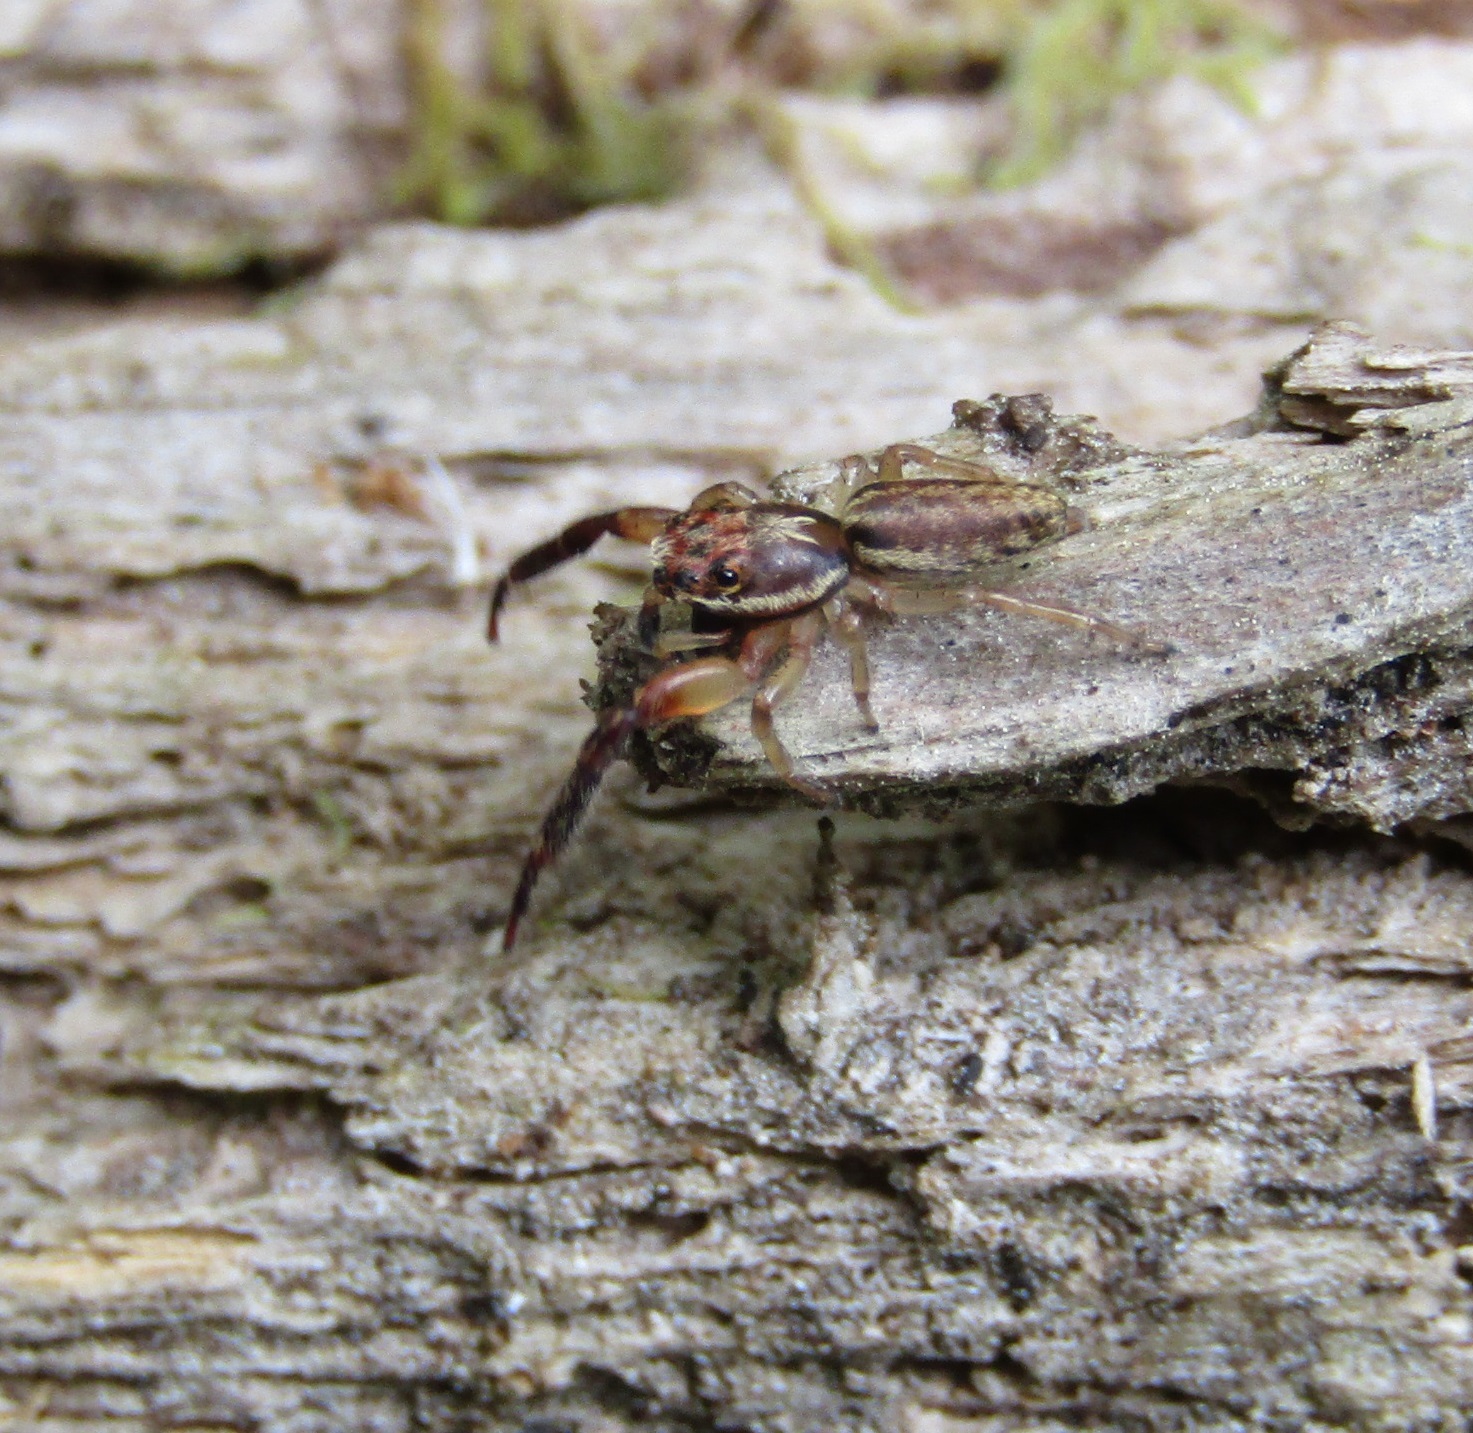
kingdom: Animalia
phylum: Arthropoda
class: Arachnida
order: Araneae
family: Salticidae
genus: Trite
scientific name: Trite mustilina
